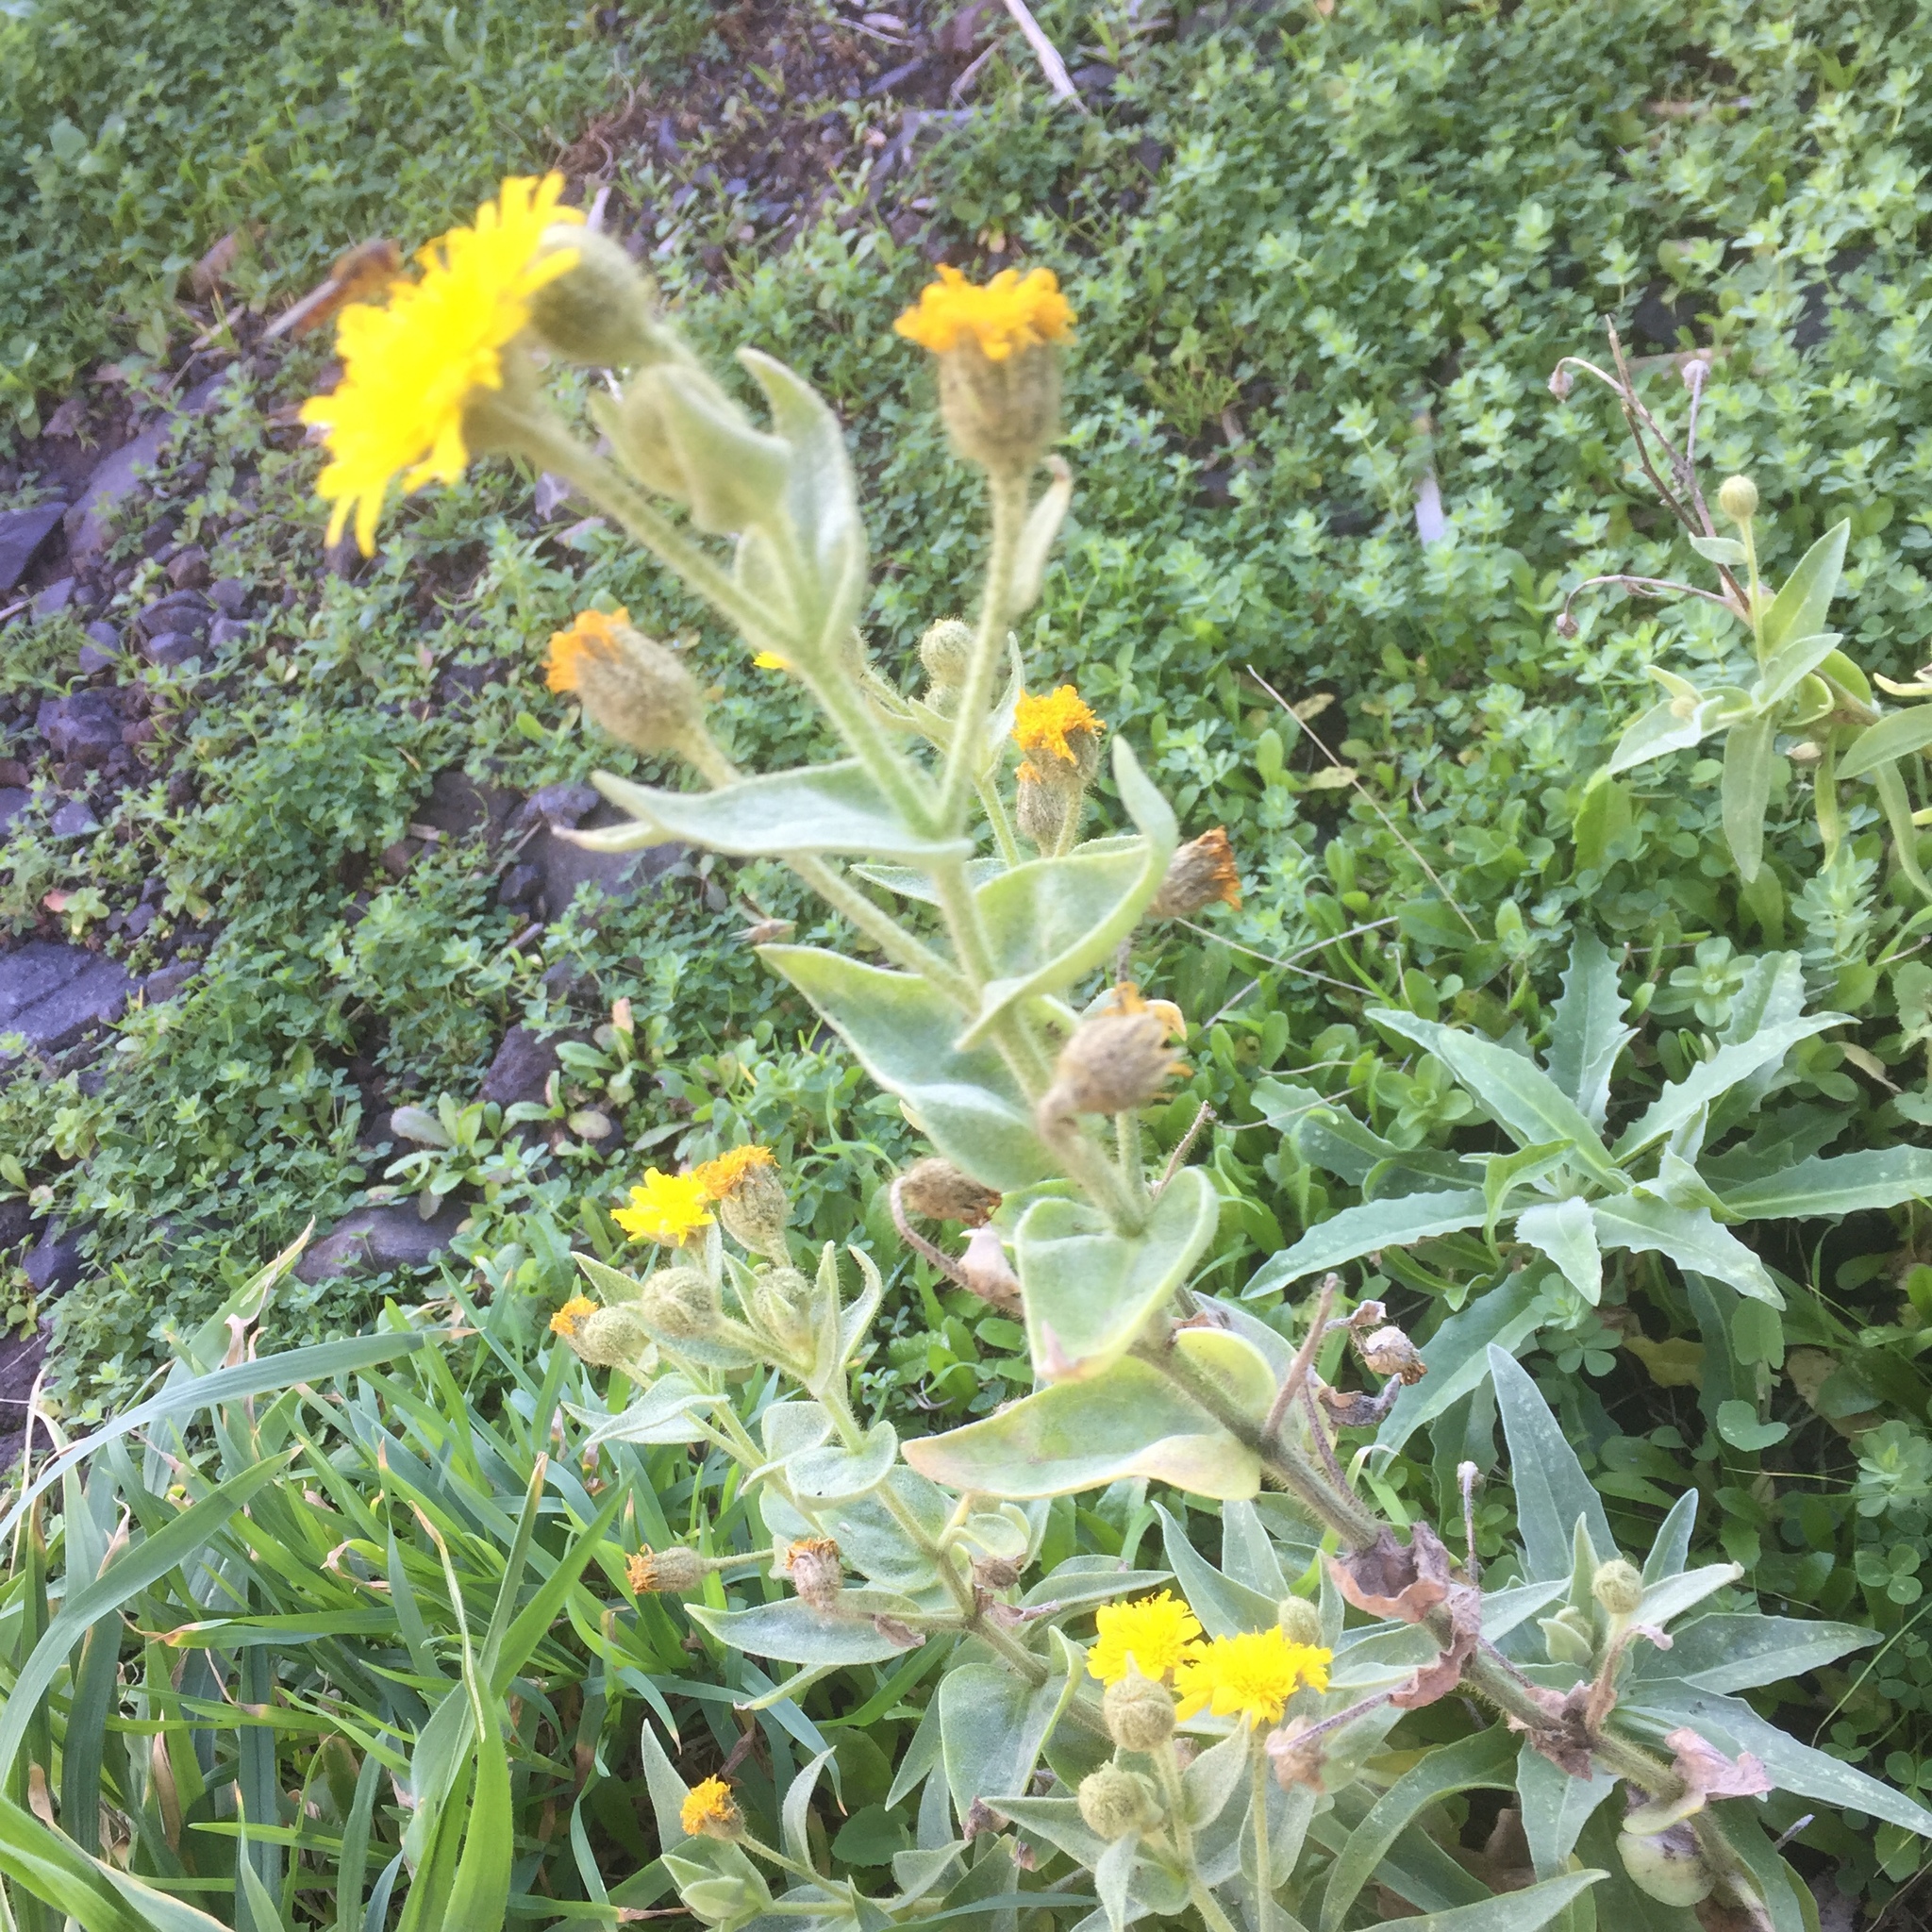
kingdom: Animalia
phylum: Arthropoda
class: Insecta
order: Diptera
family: Syrphidae
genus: Episyrphus
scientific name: Episyrphus balteatus
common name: Marmalade hoverfly
